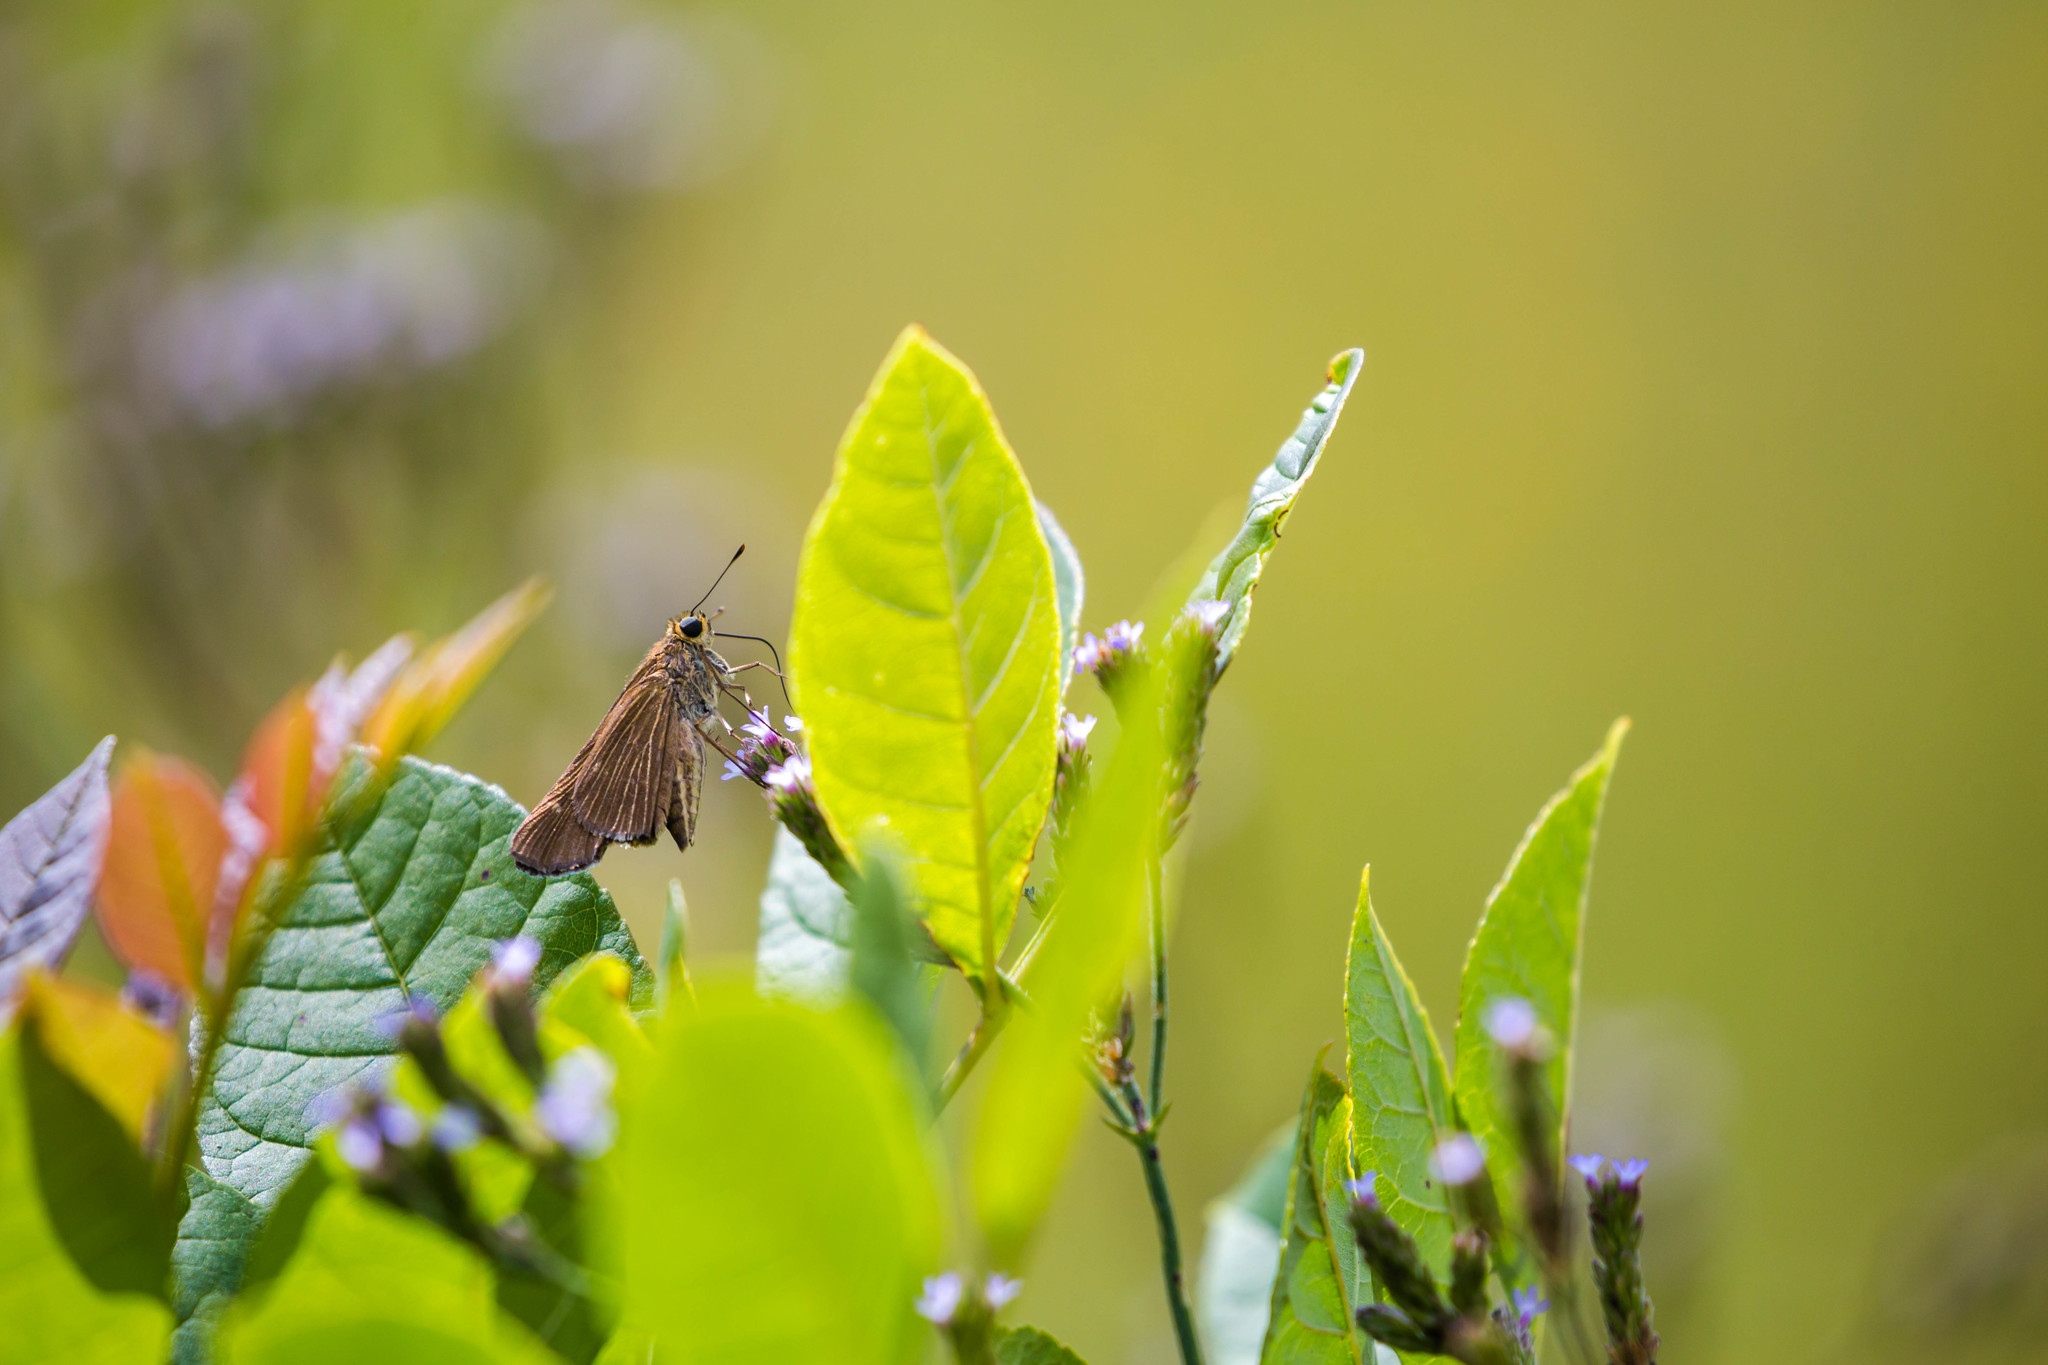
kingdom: Animalia
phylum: Arthropoda
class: Insecta
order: Lepidoptera
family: Hesperiidae
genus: Panoquina
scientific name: Panoquina ocola
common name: Ocola skipper
